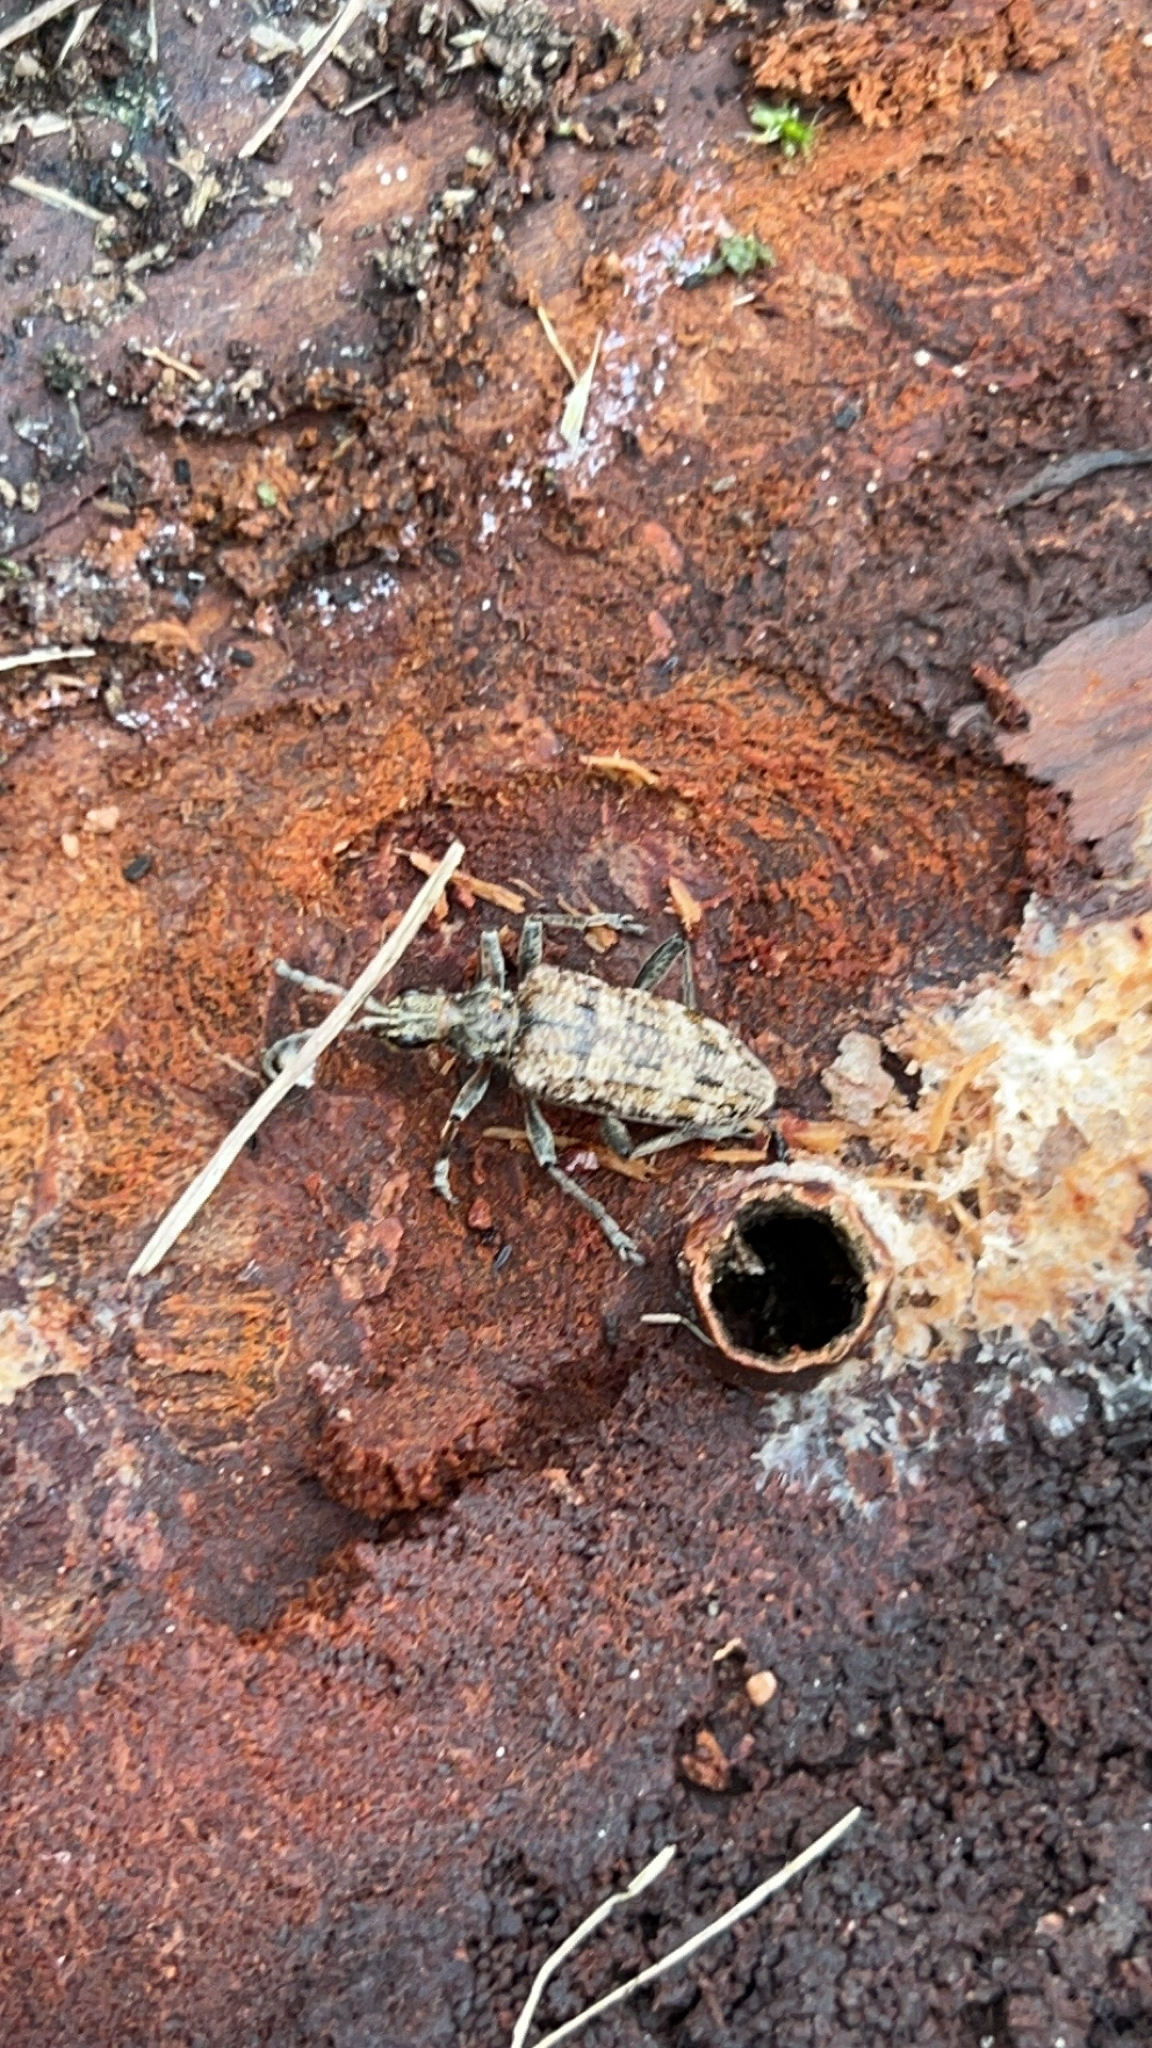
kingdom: Animalia
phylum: Arthropoda
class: Insecta
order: Coleoptera
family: Cerambycidae
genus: Rhagium
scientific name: Rhagium inquisitor
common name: Ribbed pine borer
